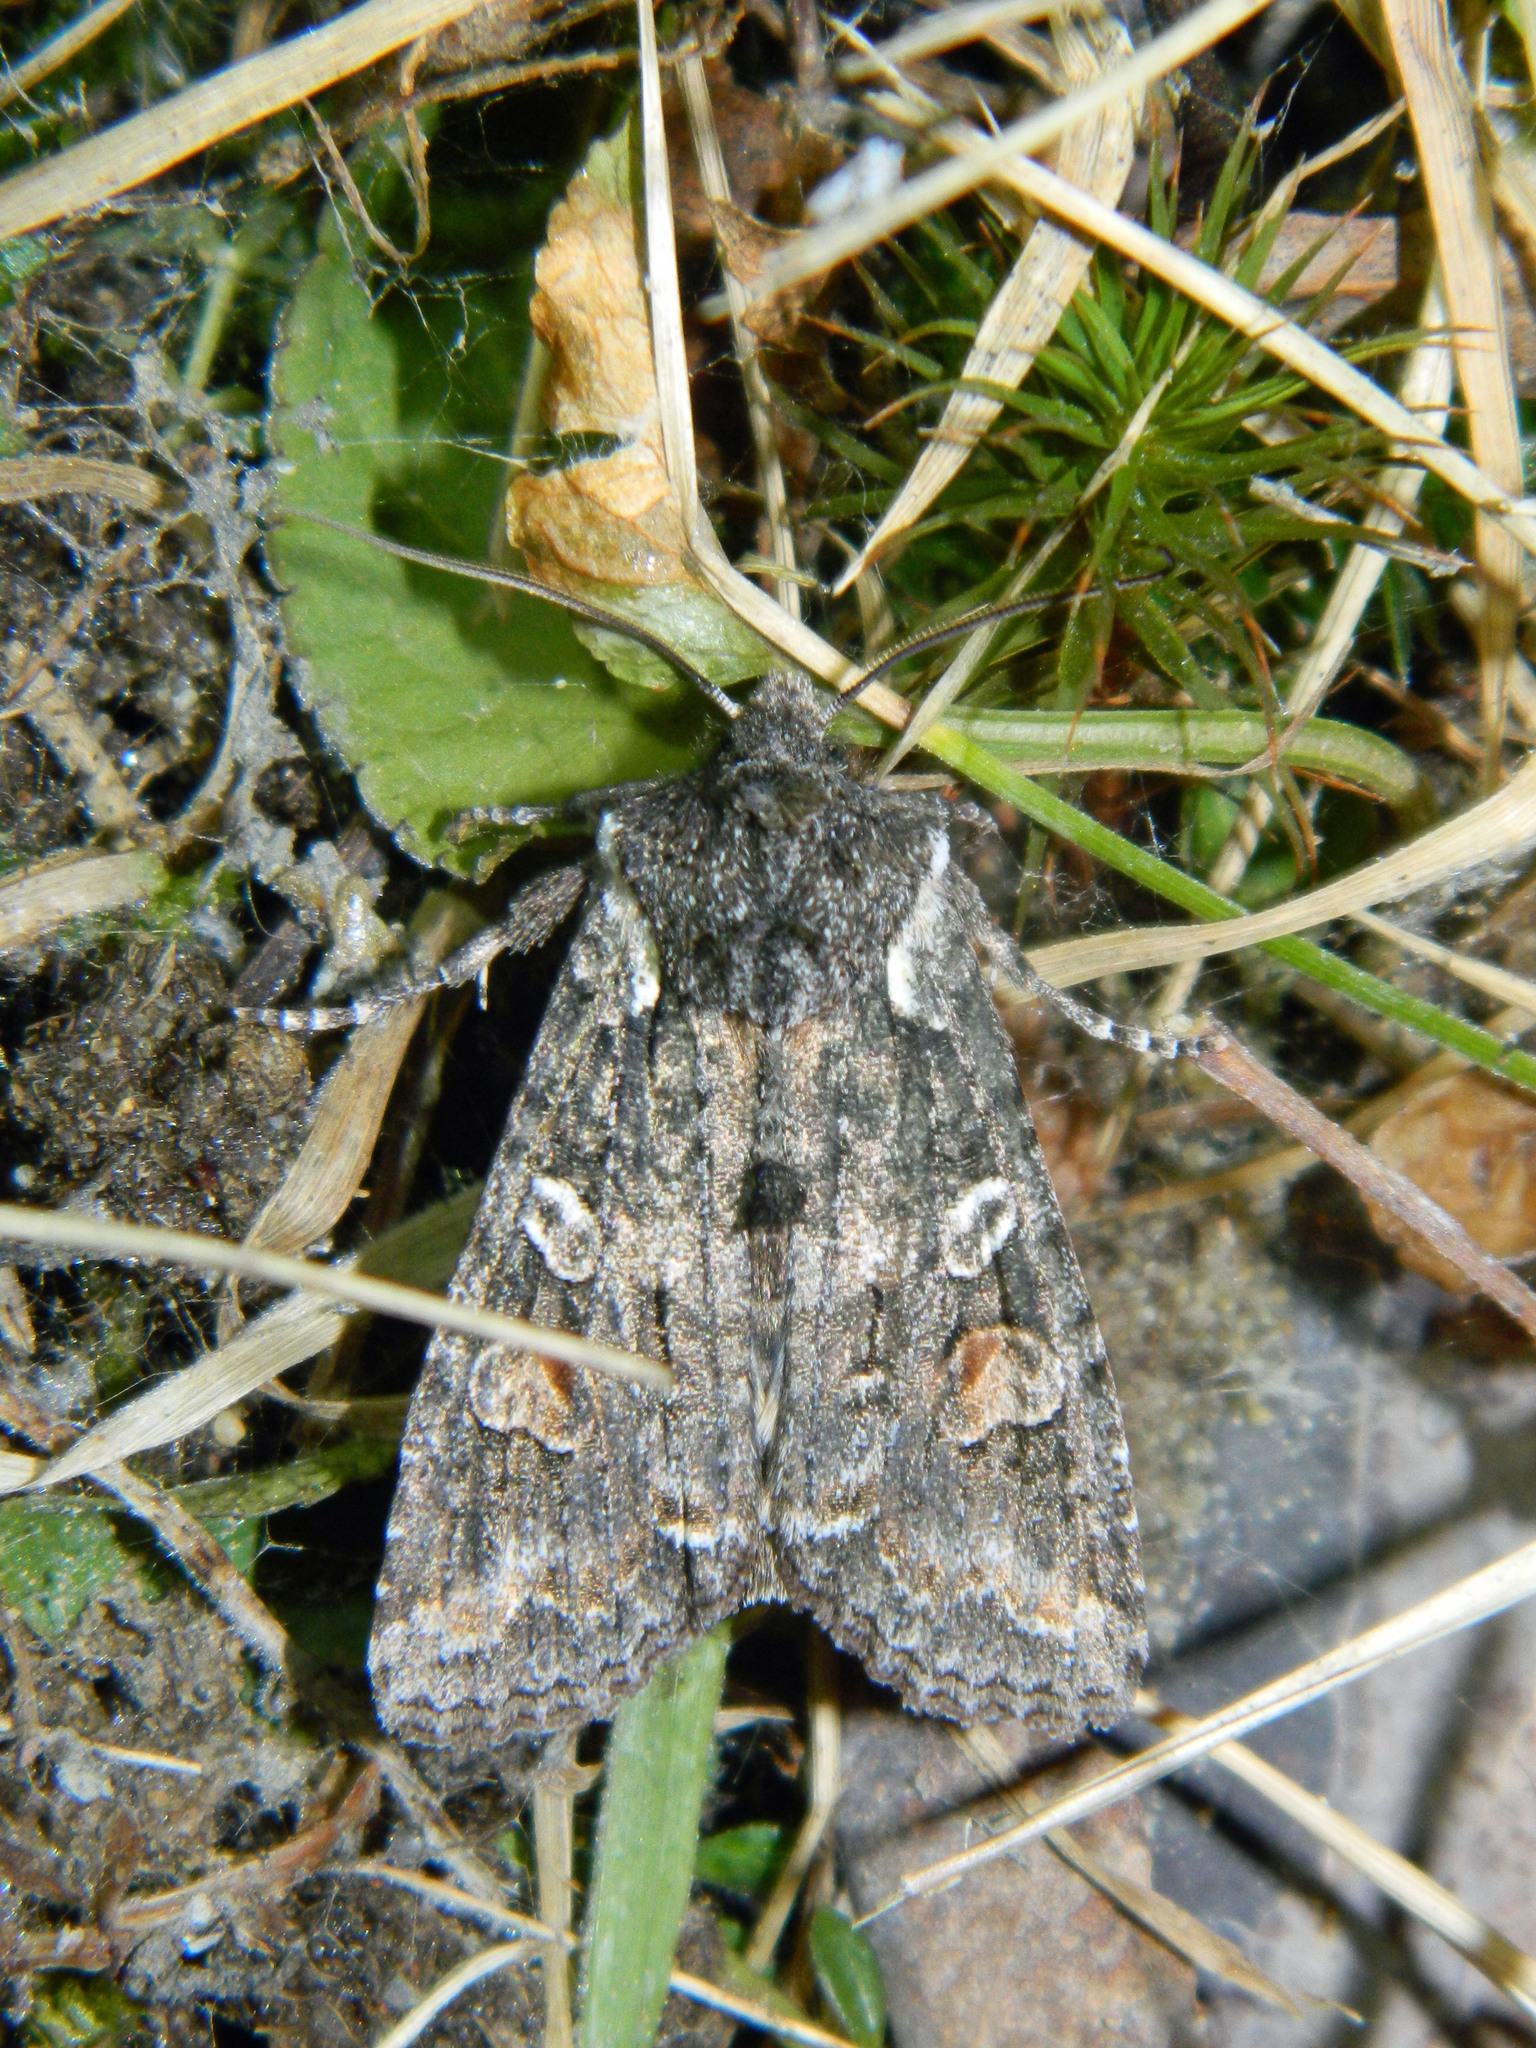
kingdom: Animalia
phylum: Arthropoda
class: Insecta
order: Lepidoptera
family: Noctuidae
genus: Lithophane
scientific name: Lithophane pexata
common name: Plush-naped pinion moth
